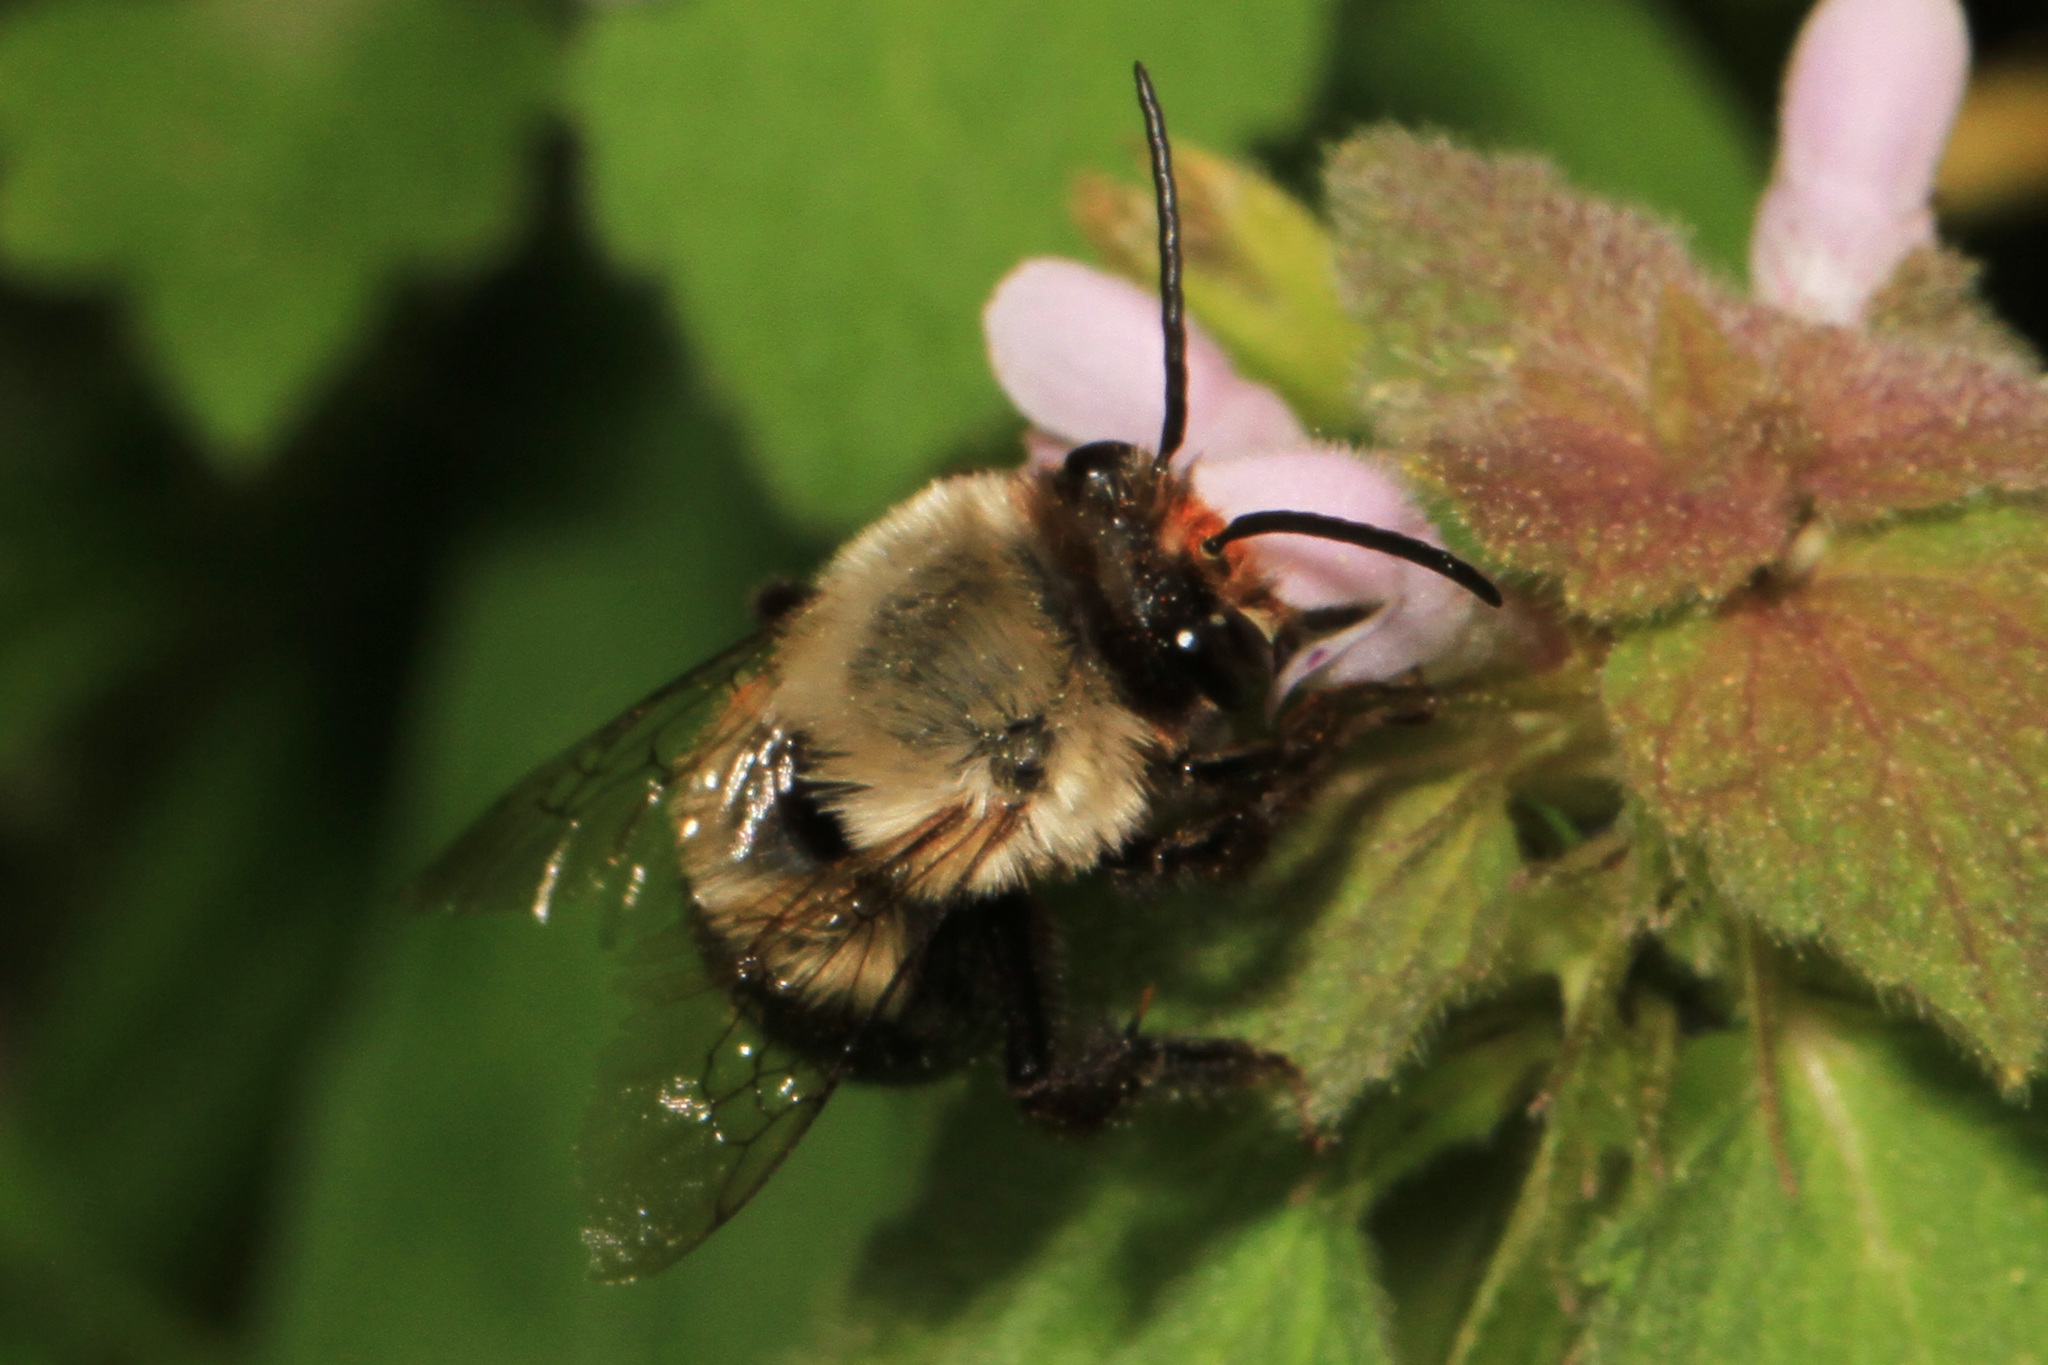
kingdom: Animalia
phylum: Arthropoda
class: Insecta
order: Hymenoptera
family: Apidae
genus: Habropoda
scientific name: Habropoda laboriosa
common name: Southeastern blueberry bee
